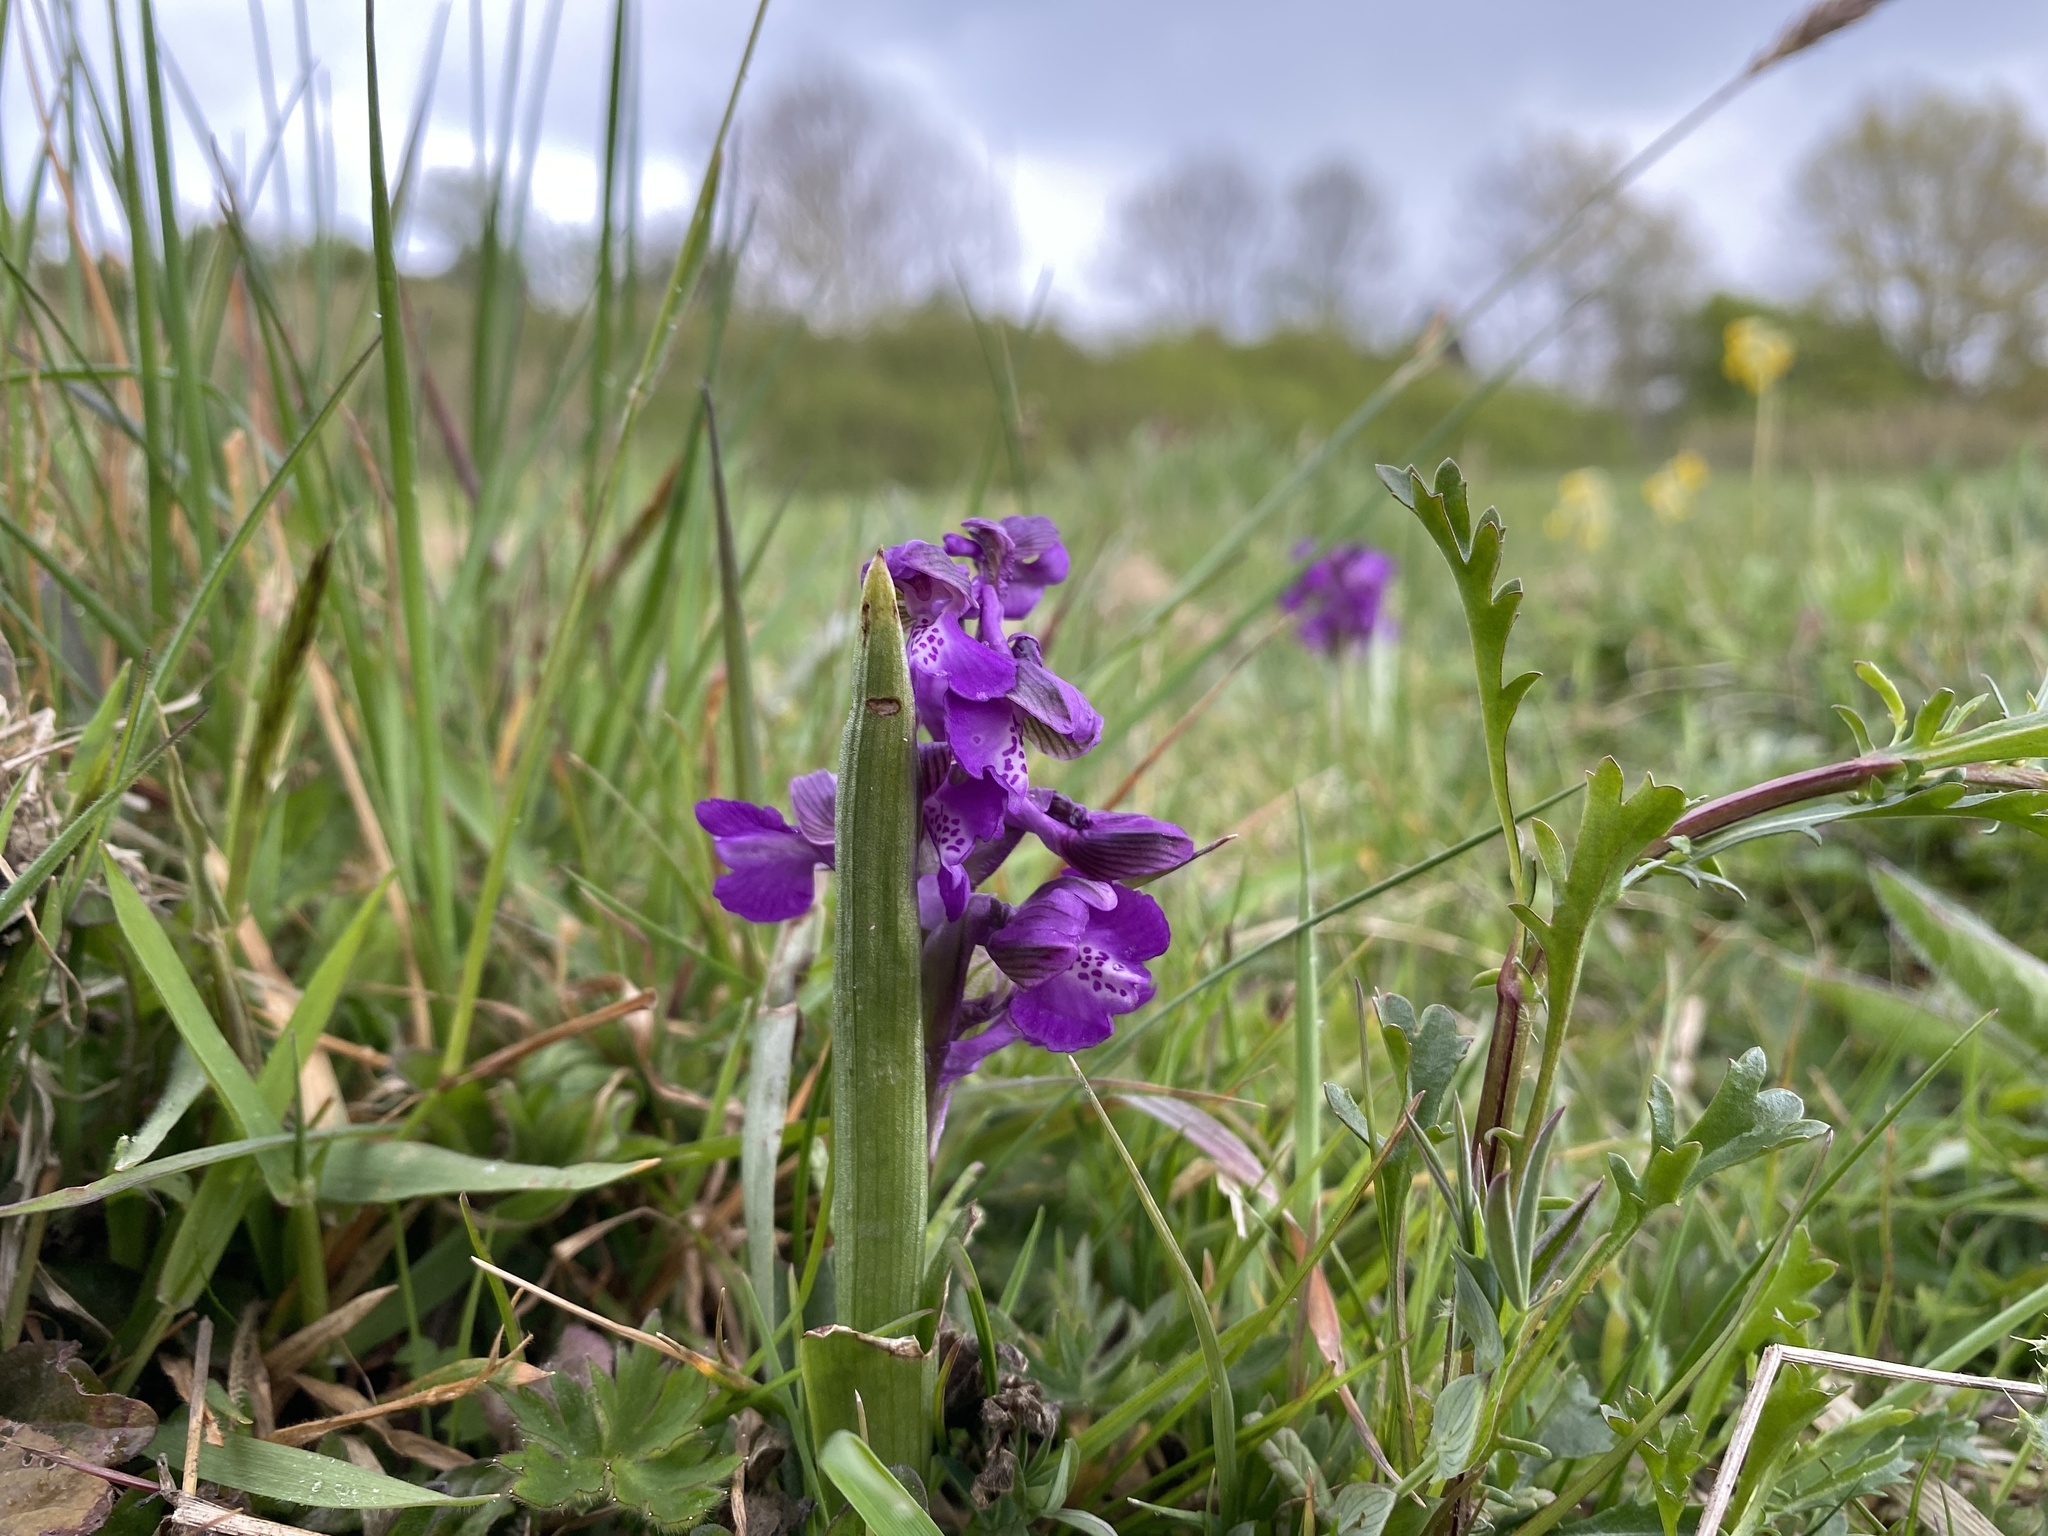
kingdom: Plantae
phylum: Tracheophyta
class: Liliopsida
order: Asparagales
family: Orchidaceae
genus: Anacamptis
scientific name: Anacamptis morio
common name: Green-winged orchid
